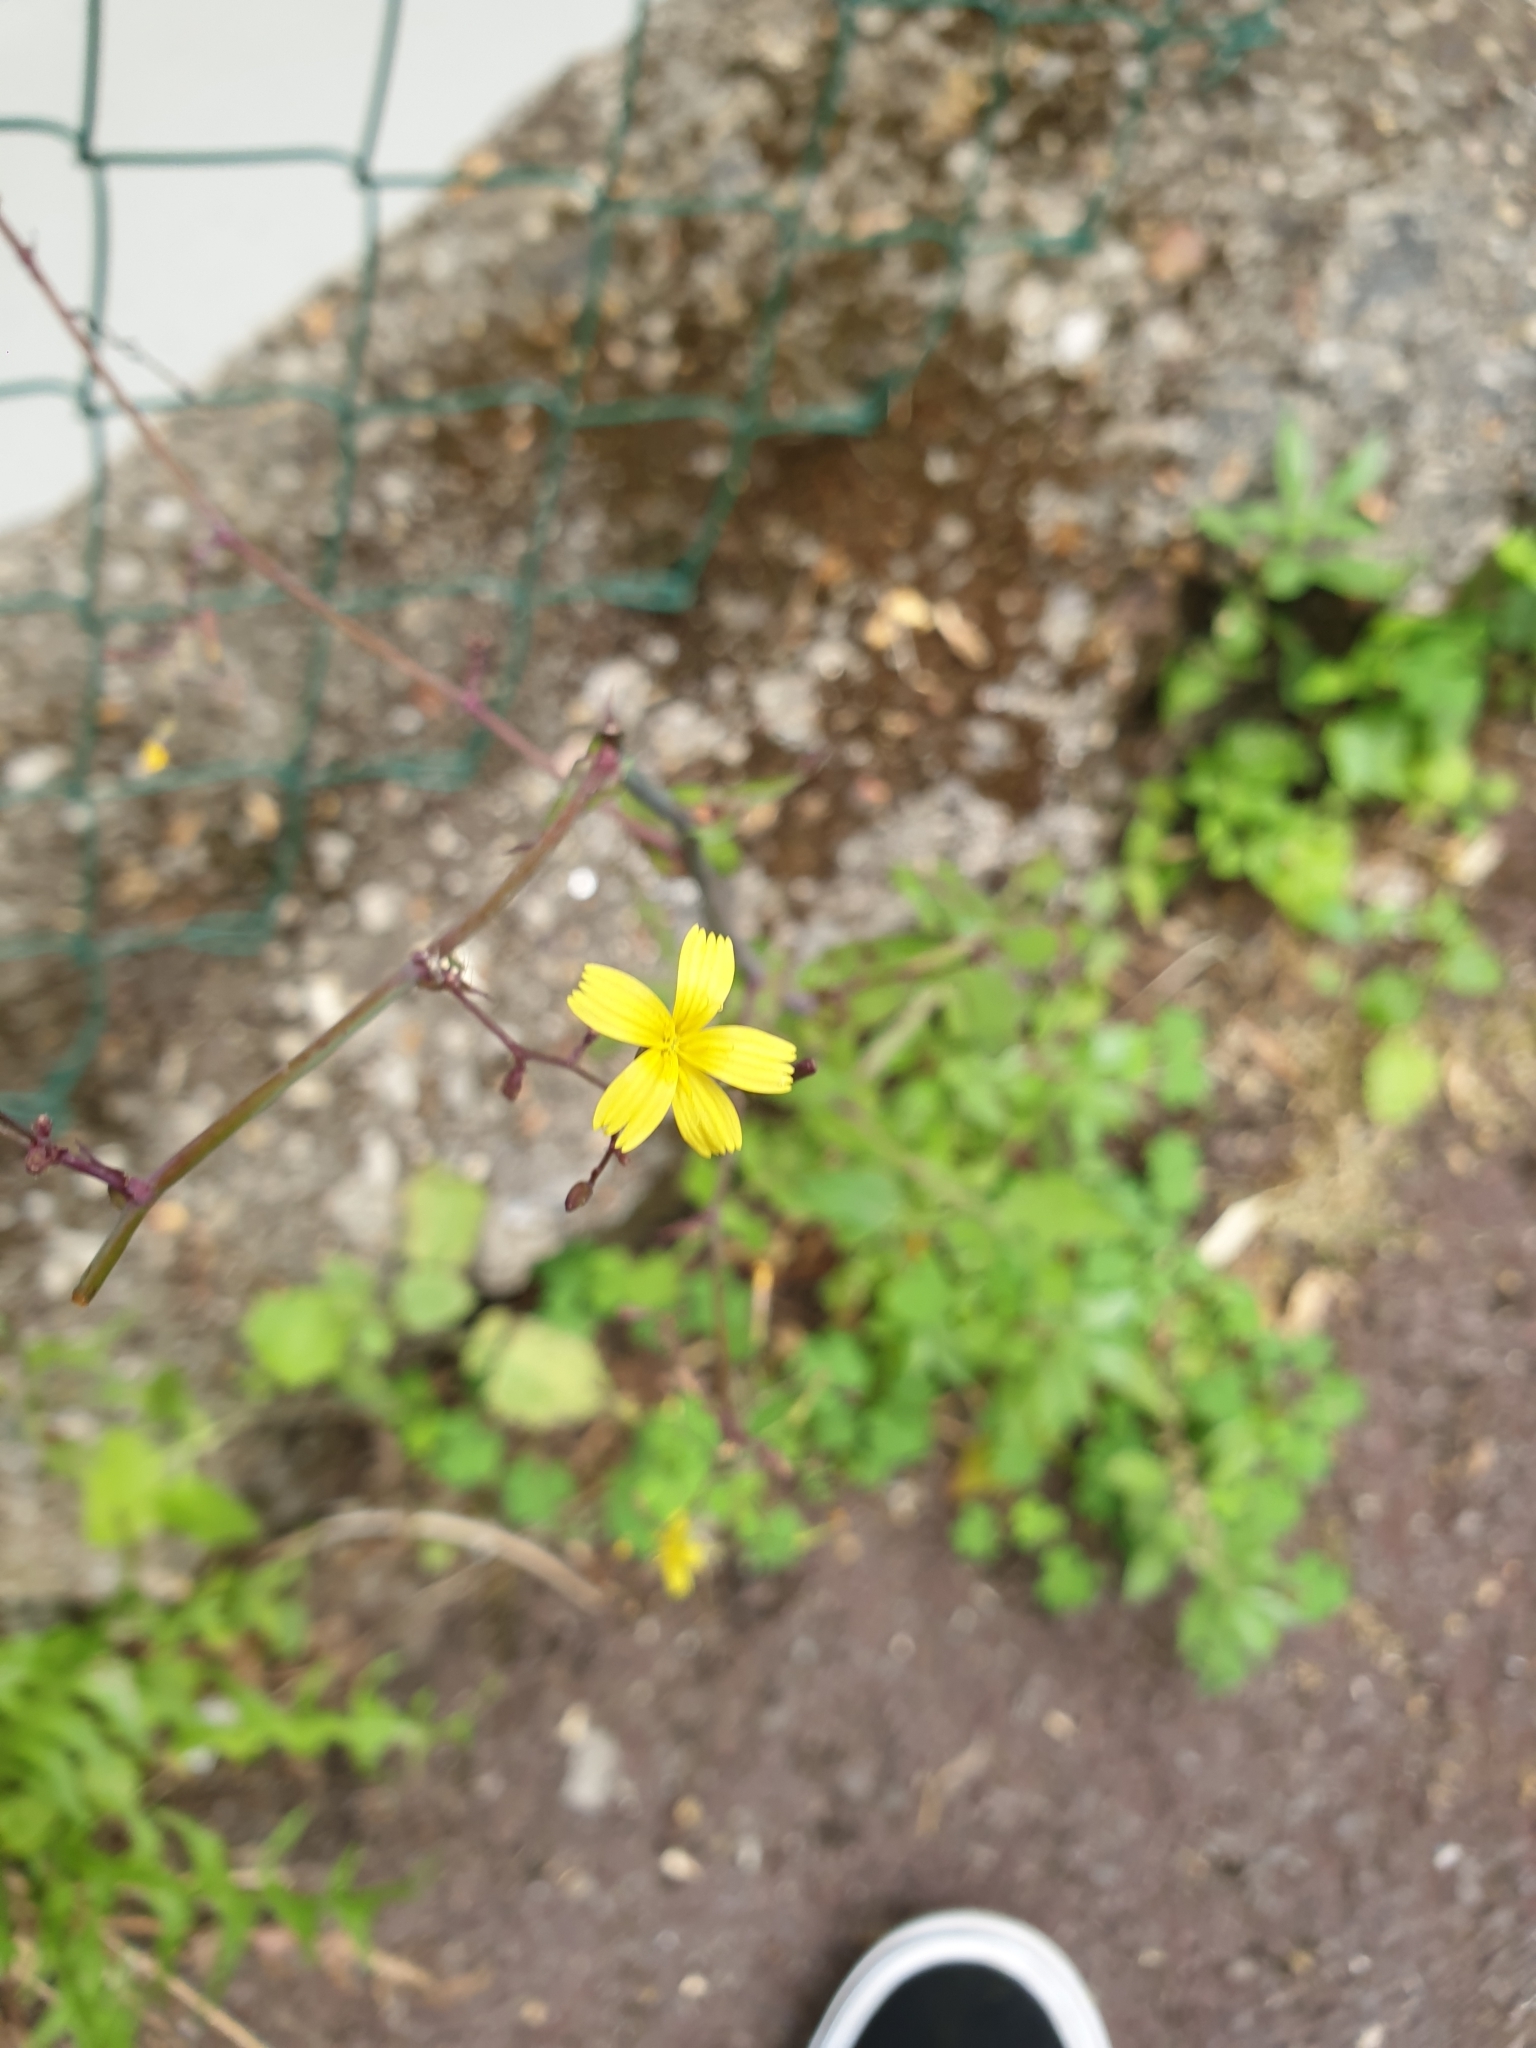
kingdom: Plantae
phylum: Tracheophyta
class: Magnoliopsida
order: Asterales
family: Asteraceae
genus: Mycelis
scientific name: Mycelis muralis
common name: Wall lettuce
